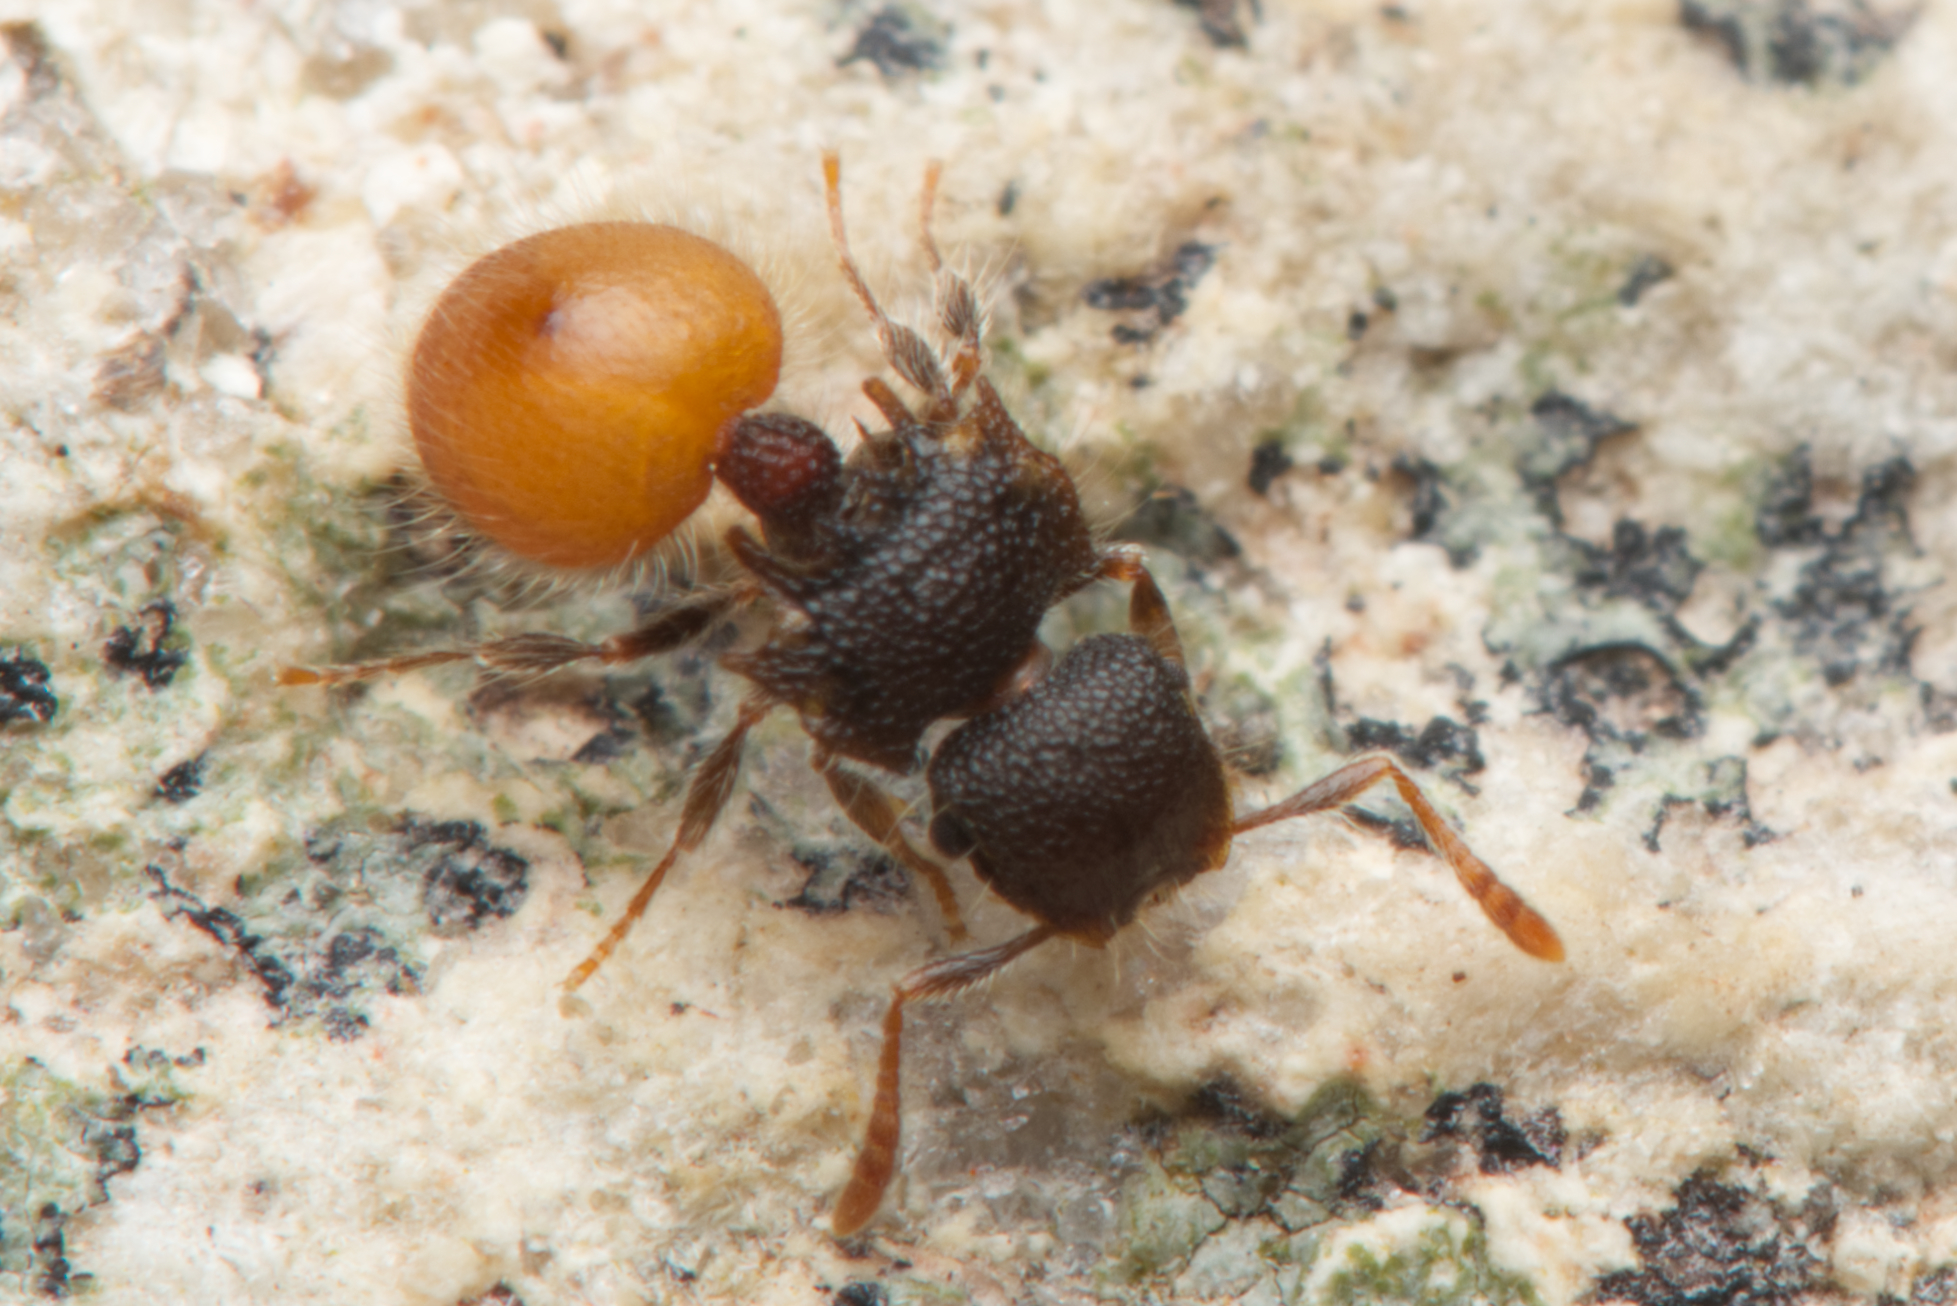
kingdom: Animalia
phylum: Arthropoda
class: Insecta
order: Hymenoptera
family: Formicidae
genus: Meranoplus
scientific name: Meranoplus hirsutus
